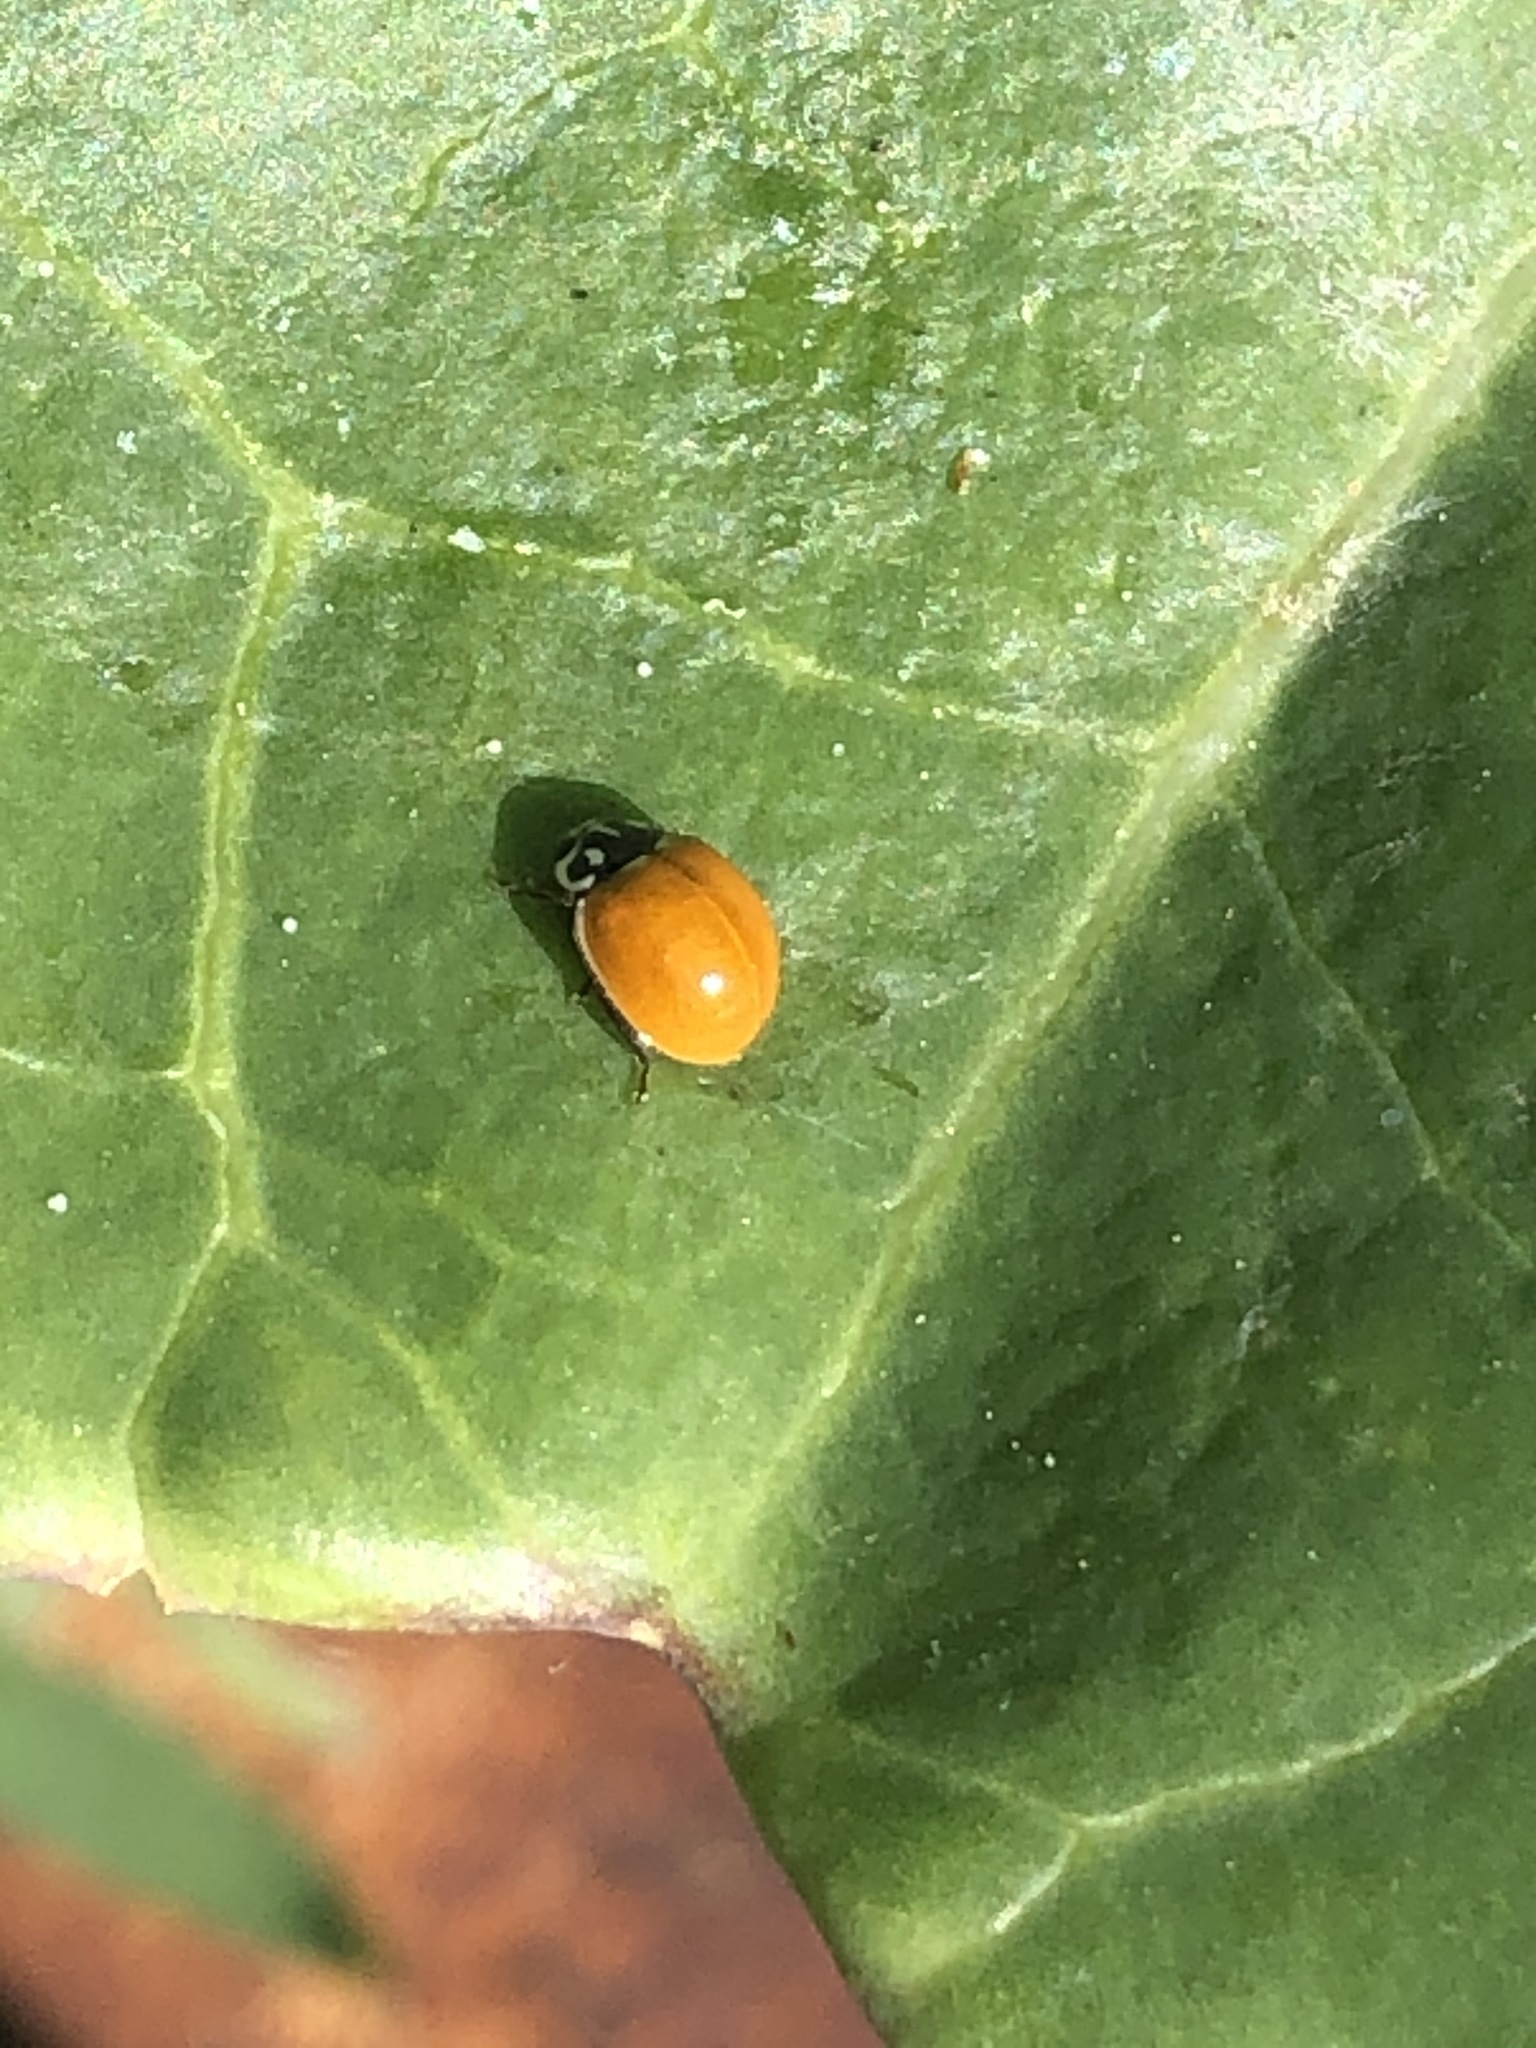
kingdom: Animalia
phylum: Arthropoda
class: Insecta
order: Coleoptera
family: Coccinellidae
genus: Cycloneda
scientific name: Cycloneda polita
